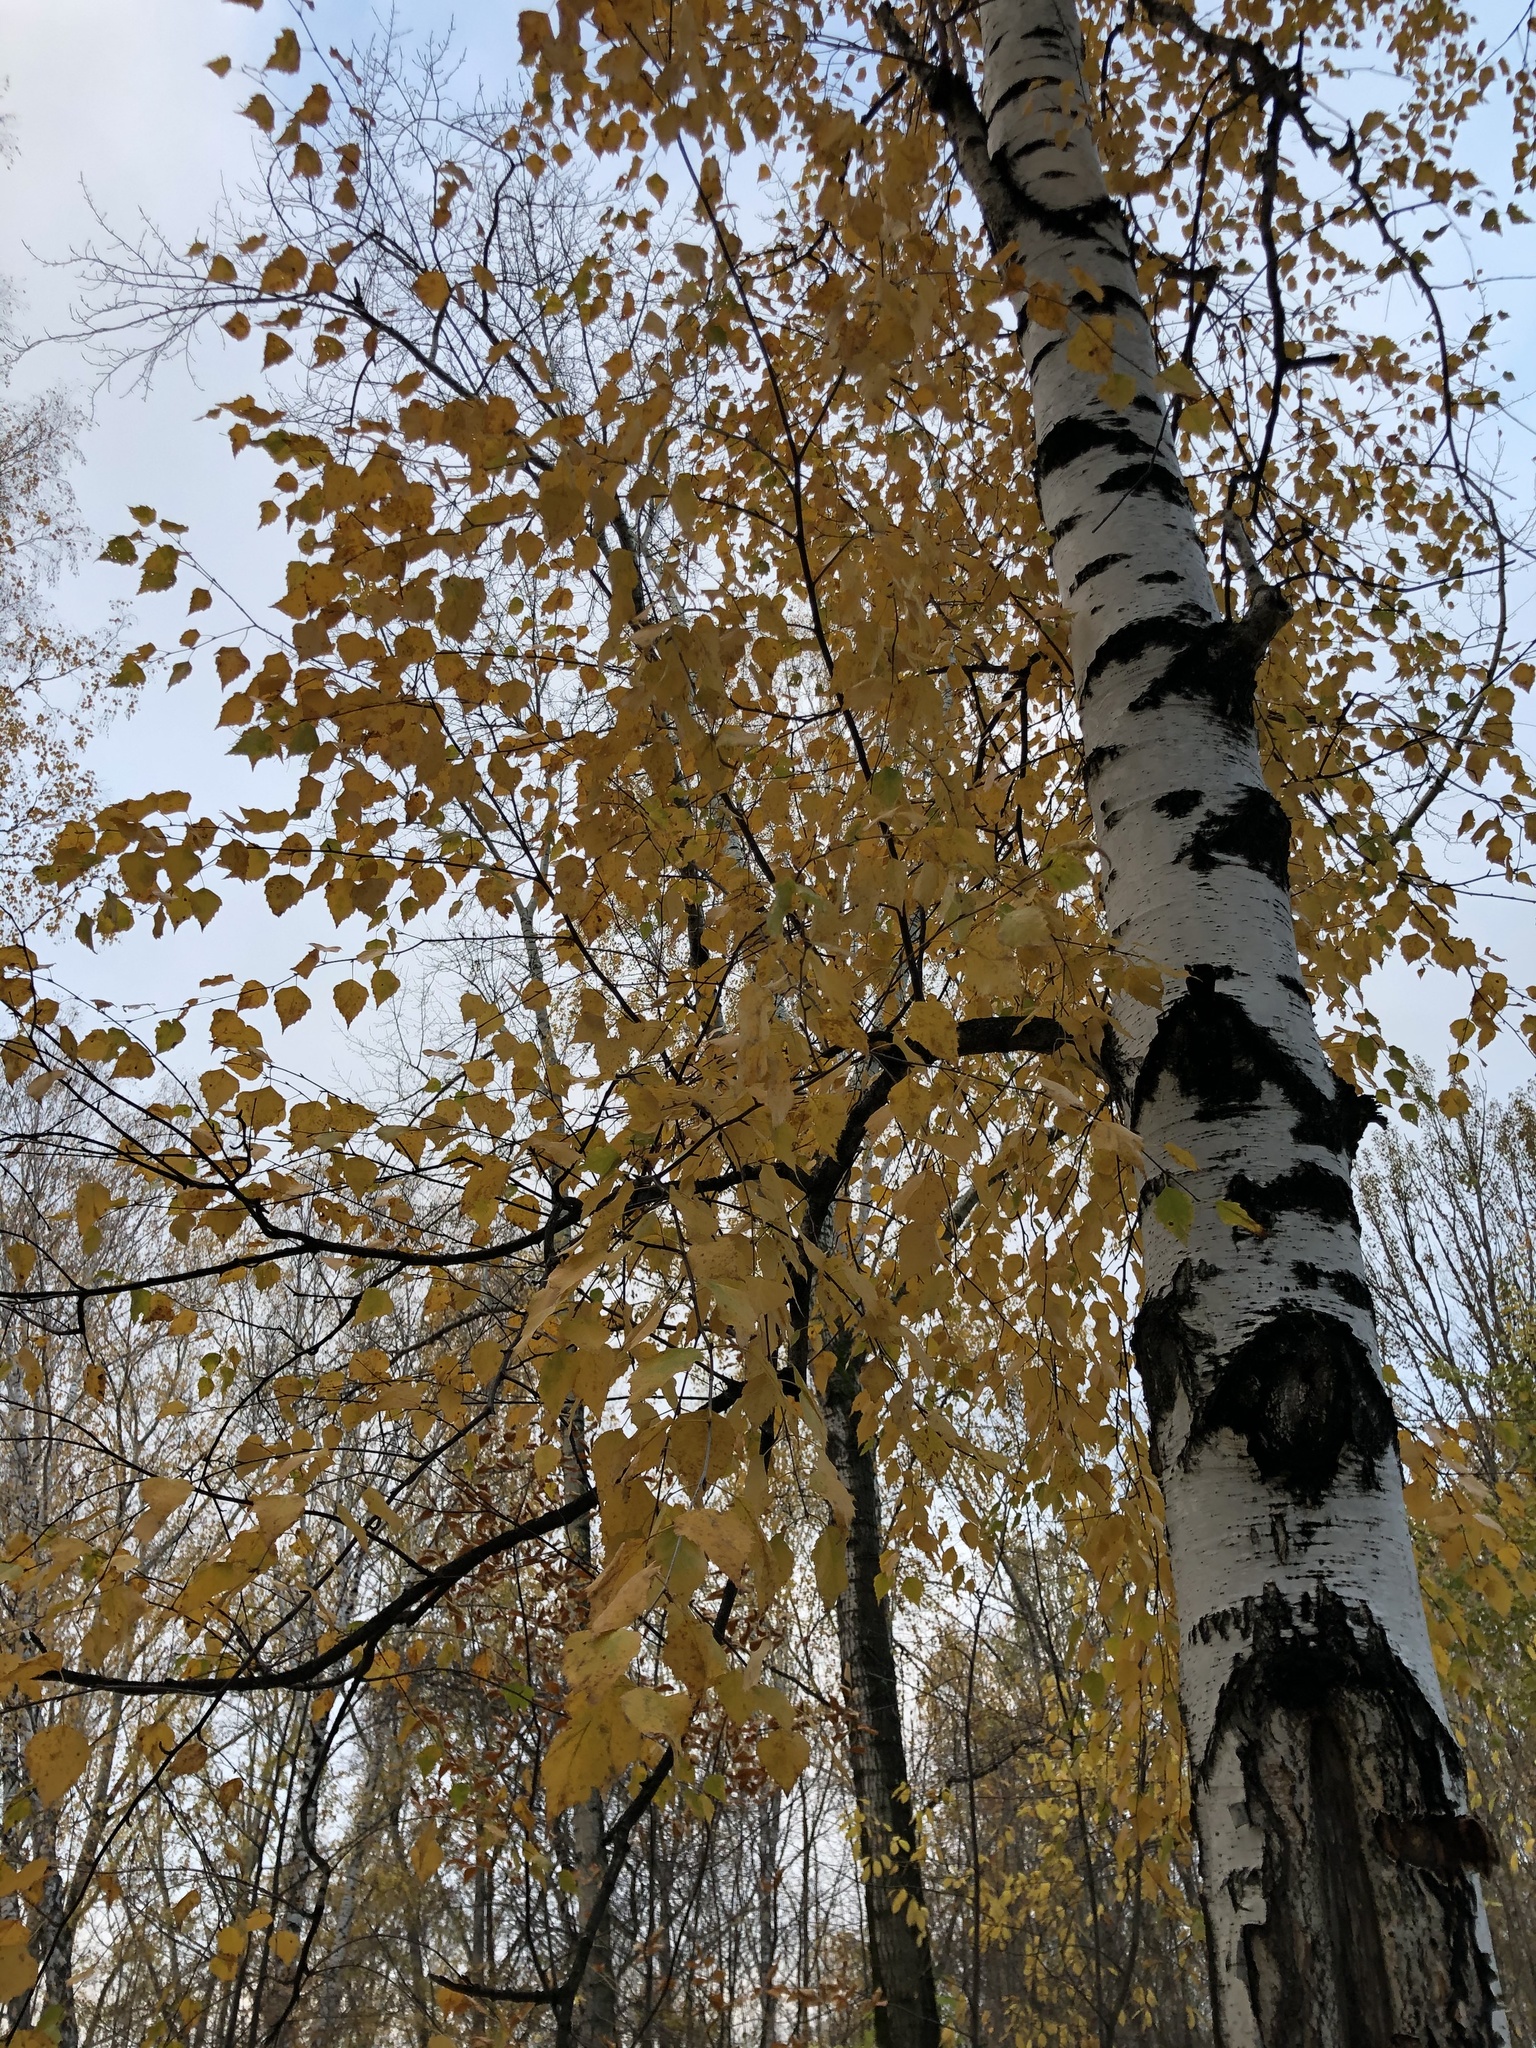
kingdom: Plantae
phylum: Tracheophyta
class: Magnoliopsida
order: Fagales
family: Betulaceae
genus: Betula
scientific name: Betula pendula
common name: Silver birch
